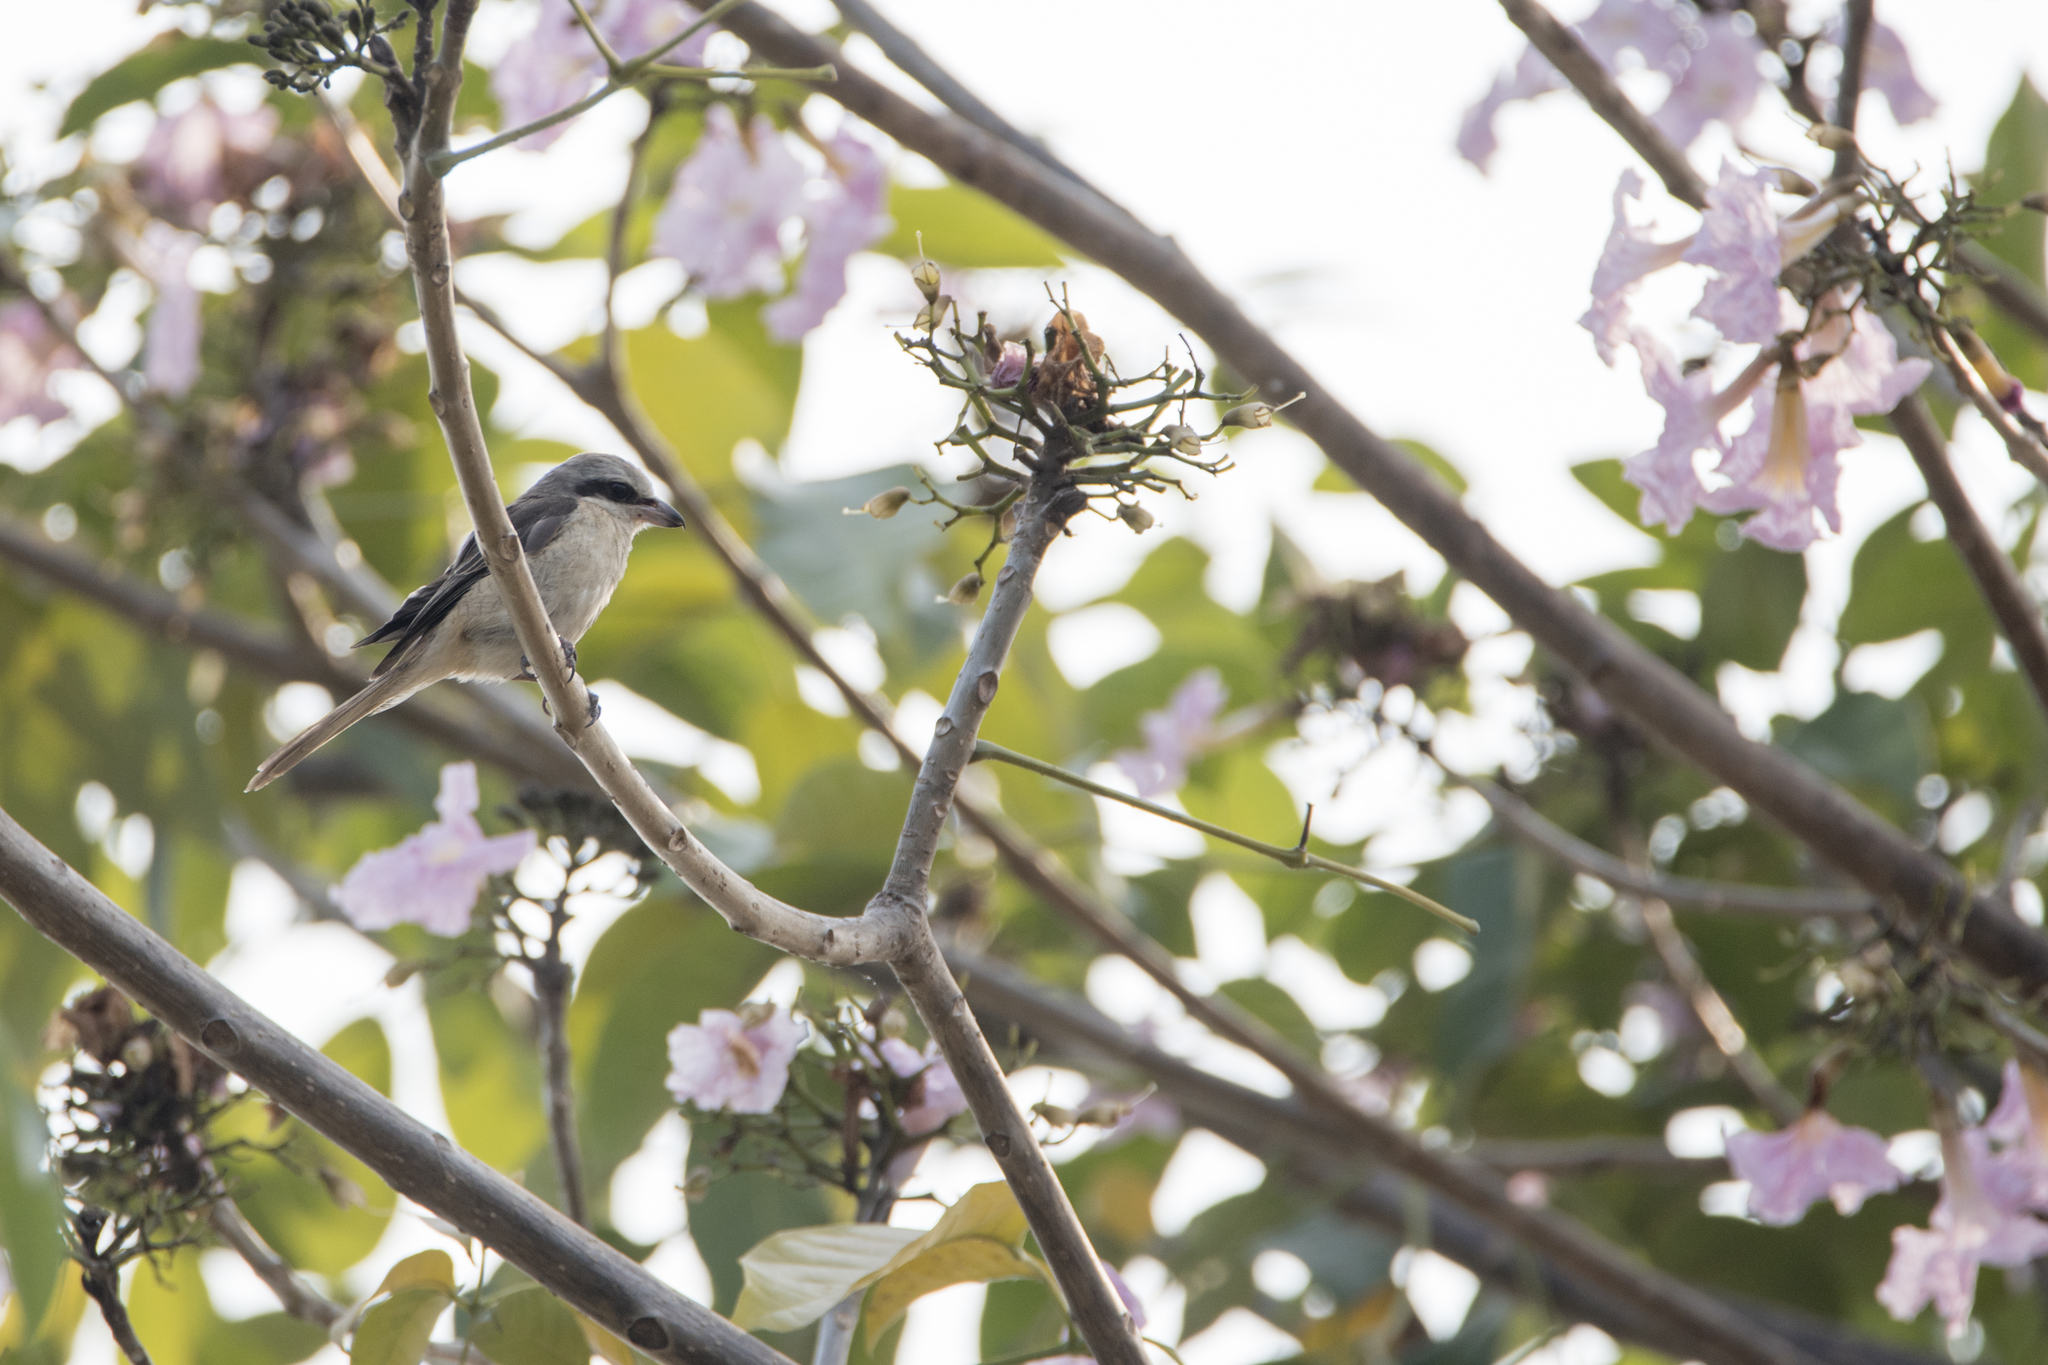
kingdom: Animalia
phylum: Chordata
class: Aves
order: Passeriformes
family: Laniidae
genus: Lanius
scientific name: Lanius cristatus
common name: Brown shrike
